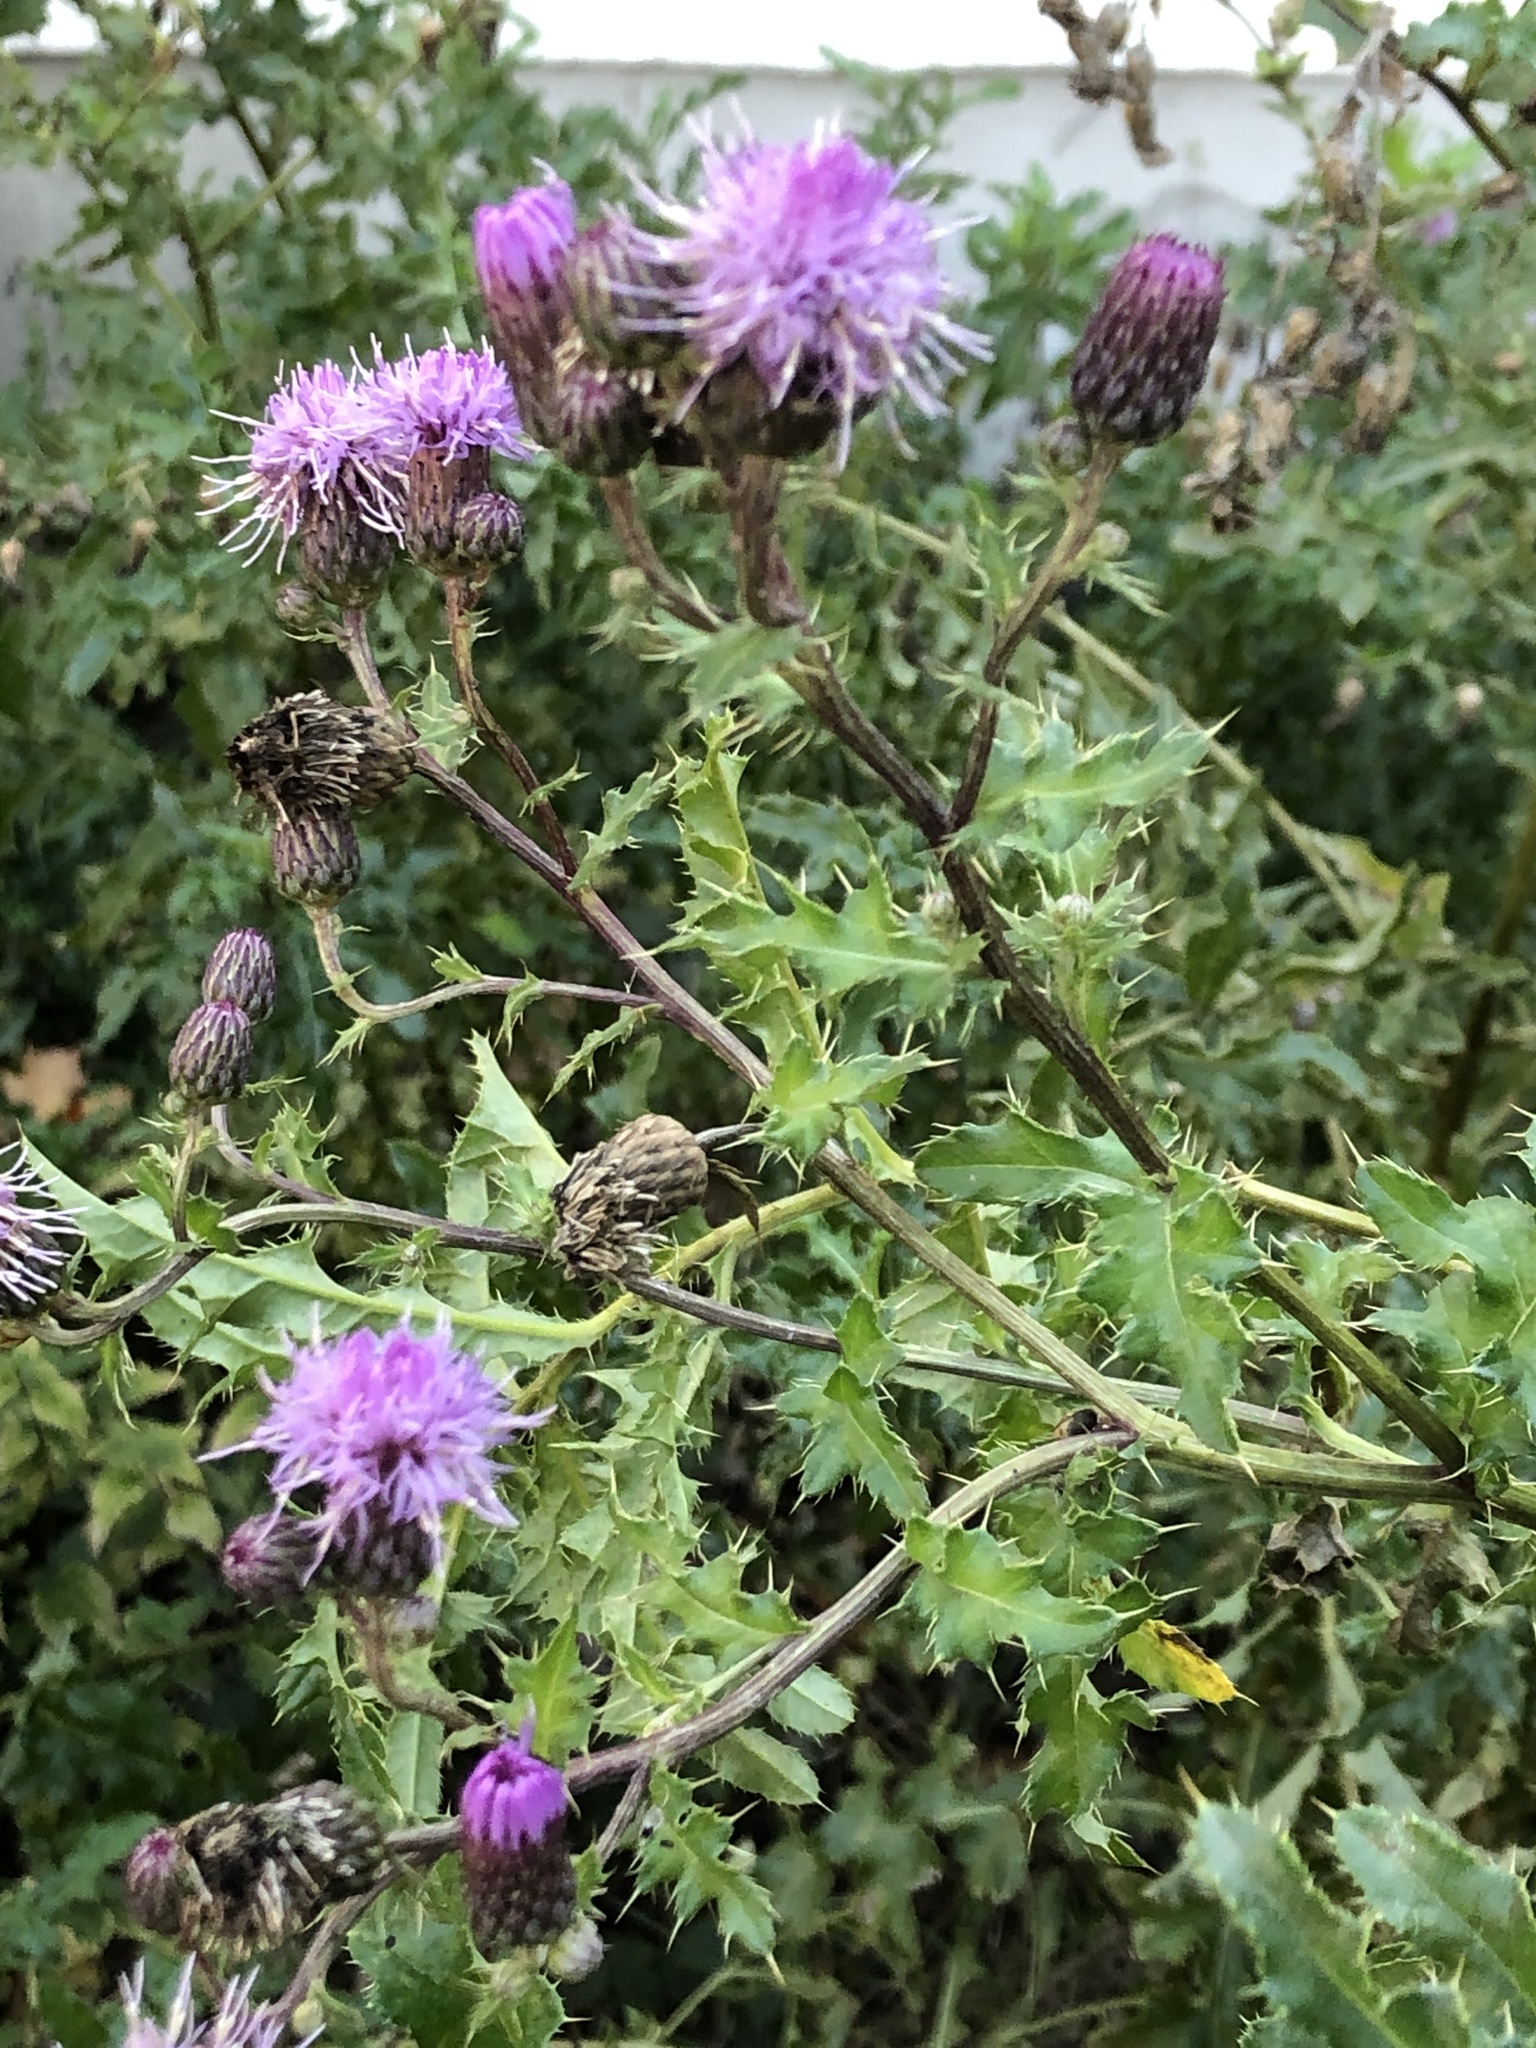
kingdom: Plantae
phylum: Tracheophyta
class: Magnoliopsida
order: Asterales
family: Asteraceae
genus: Cirsium
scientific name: Cirsium arvense
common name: Creeping thistle
